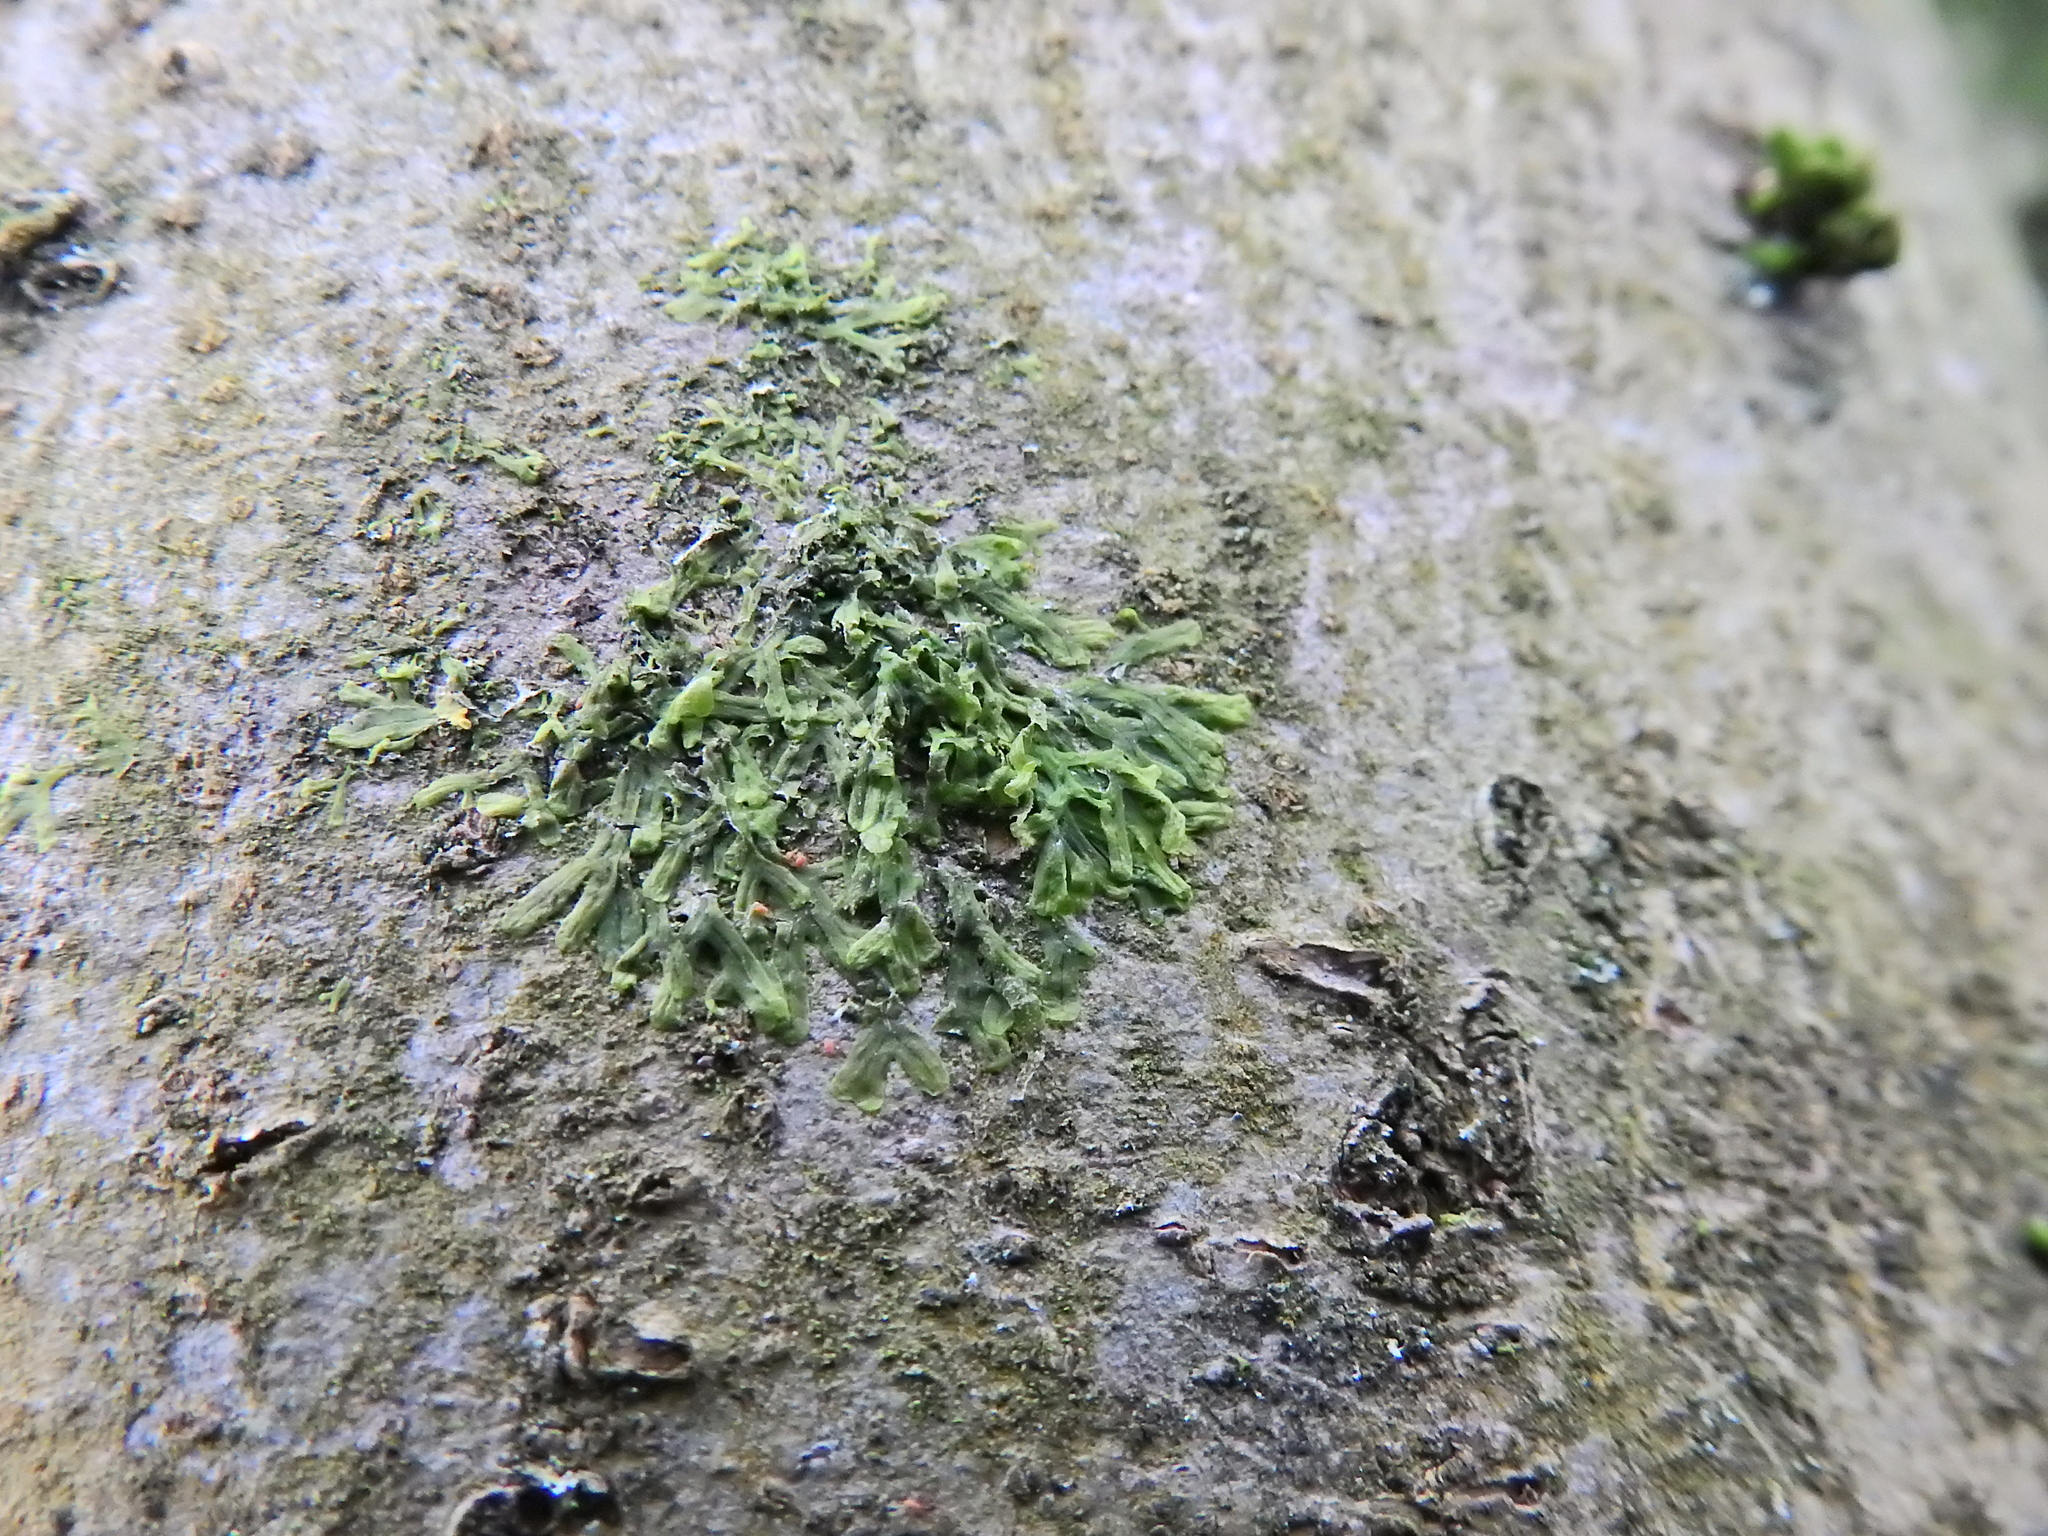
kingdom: Plantae
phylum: Marchantiophyta
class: Jungermanniopsida
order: Metzgeriales
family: Metzgeriaceae
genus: Metzgeria
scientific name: Metzgeria furcata
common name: Forked veilwort
